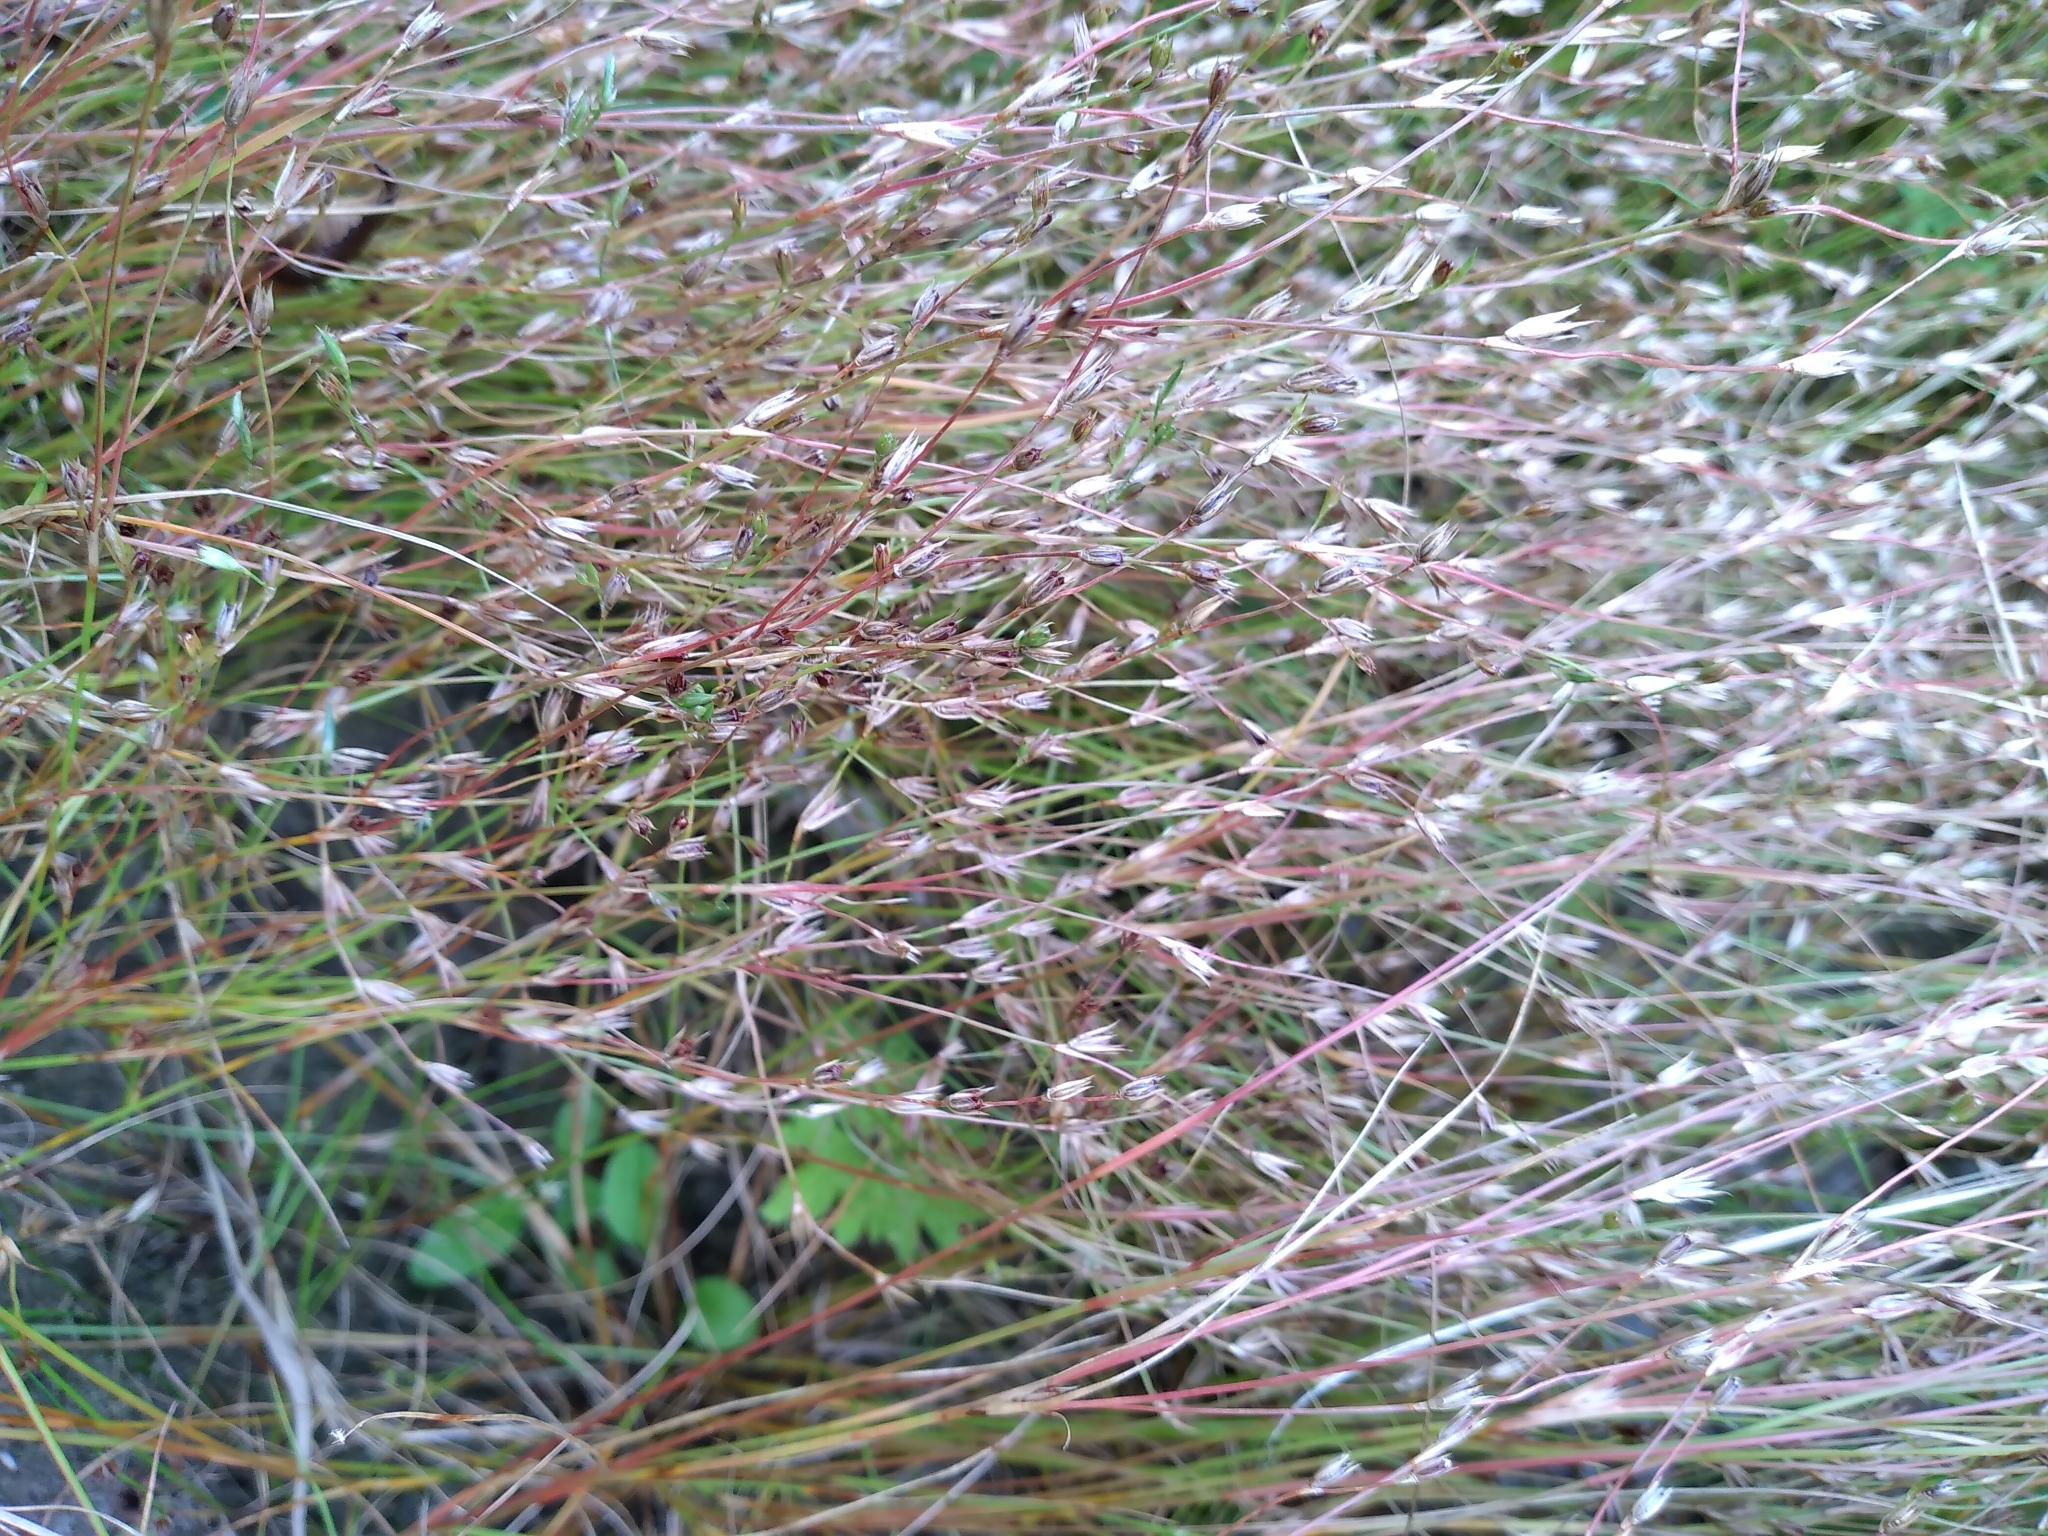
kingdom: Plantae
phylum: Tracheophyta
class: Liliopsida
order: Poales
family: Juncaceae
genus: Juncus
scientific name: Juncus bufonius
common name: Toad rush
